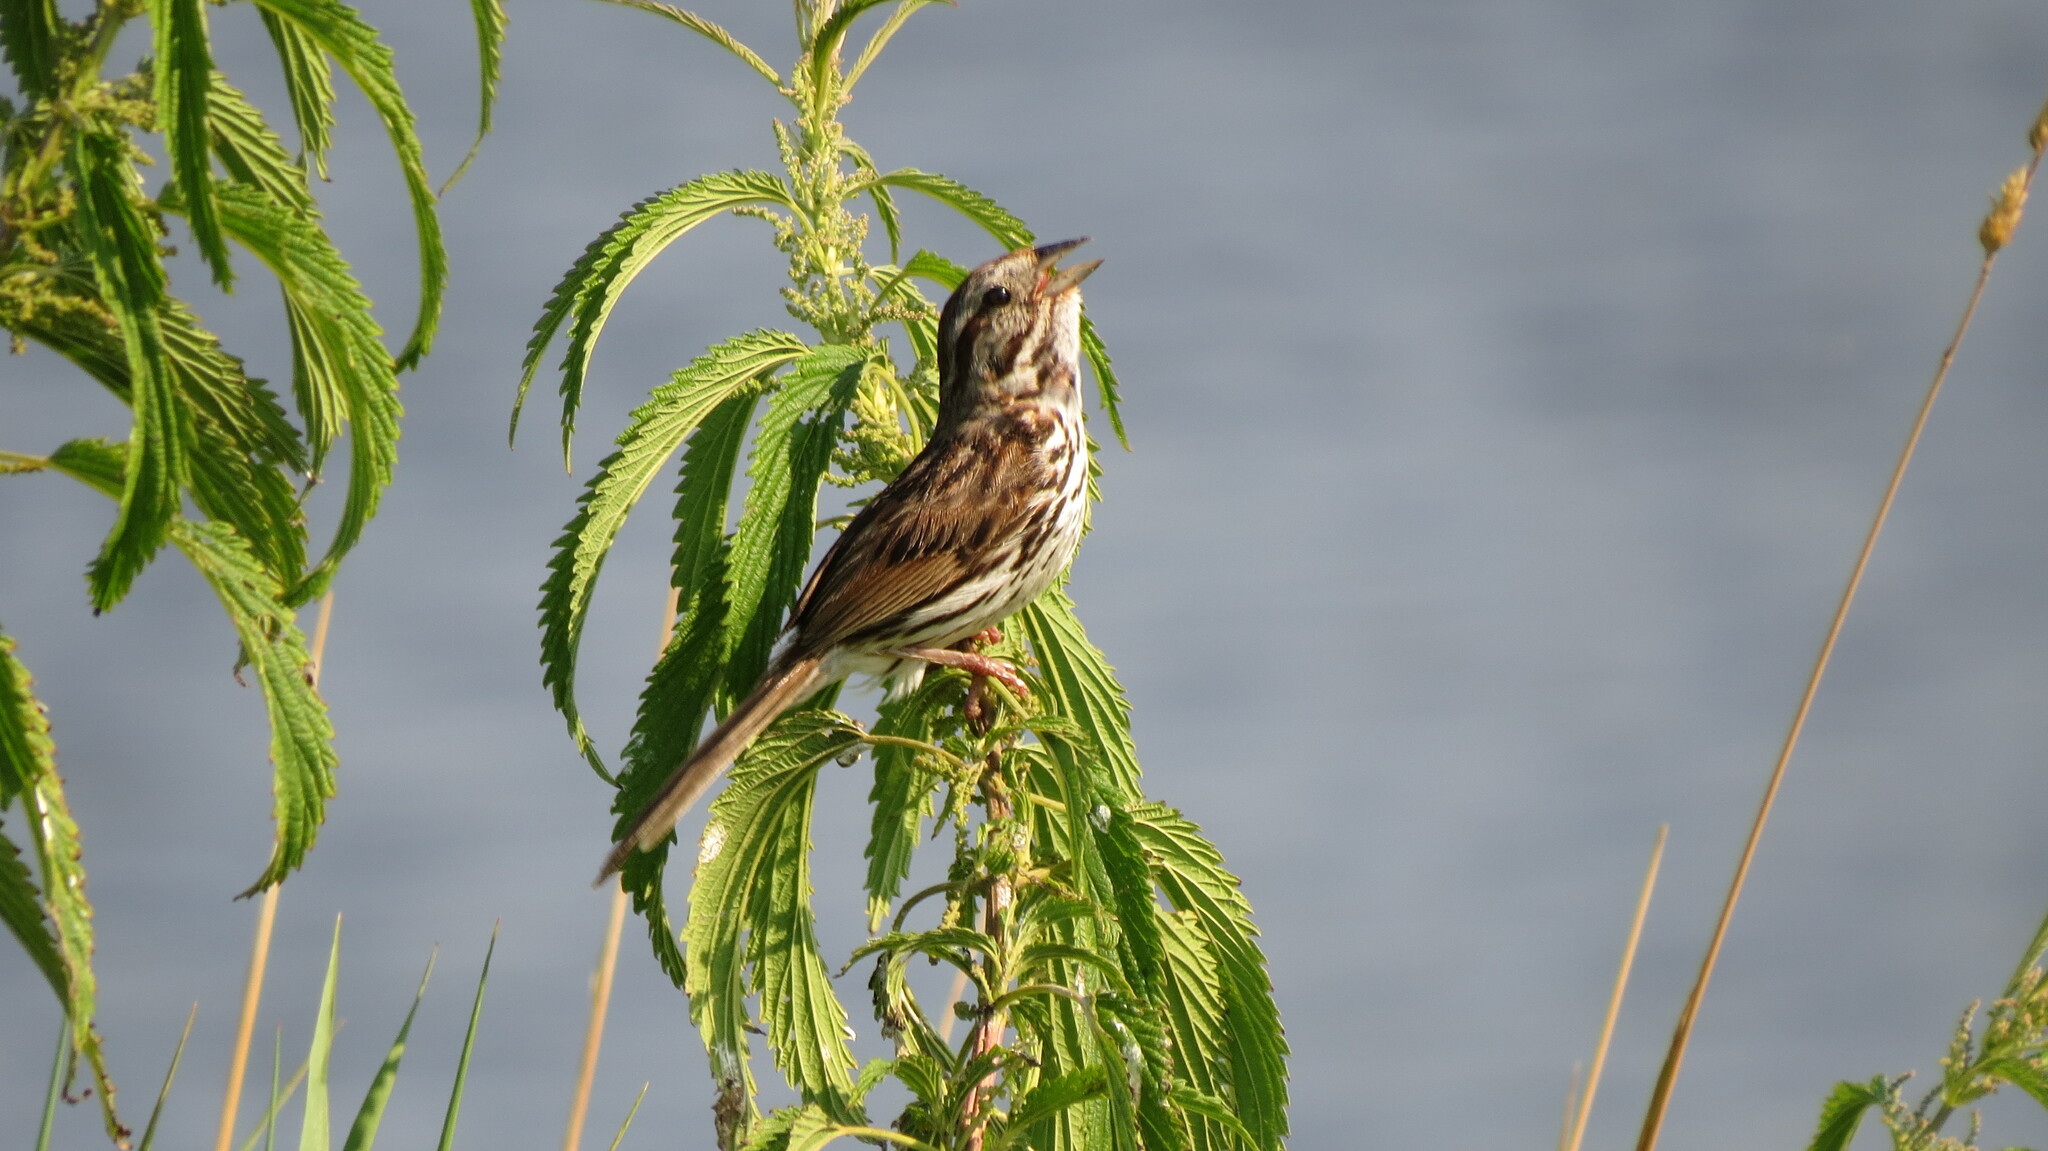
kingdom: Animalia
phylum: Chordata
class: Aves
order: Passeriformes
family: Passerellidae
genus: Melospiza
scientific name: Melospiza melodia
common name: Song sparrow
